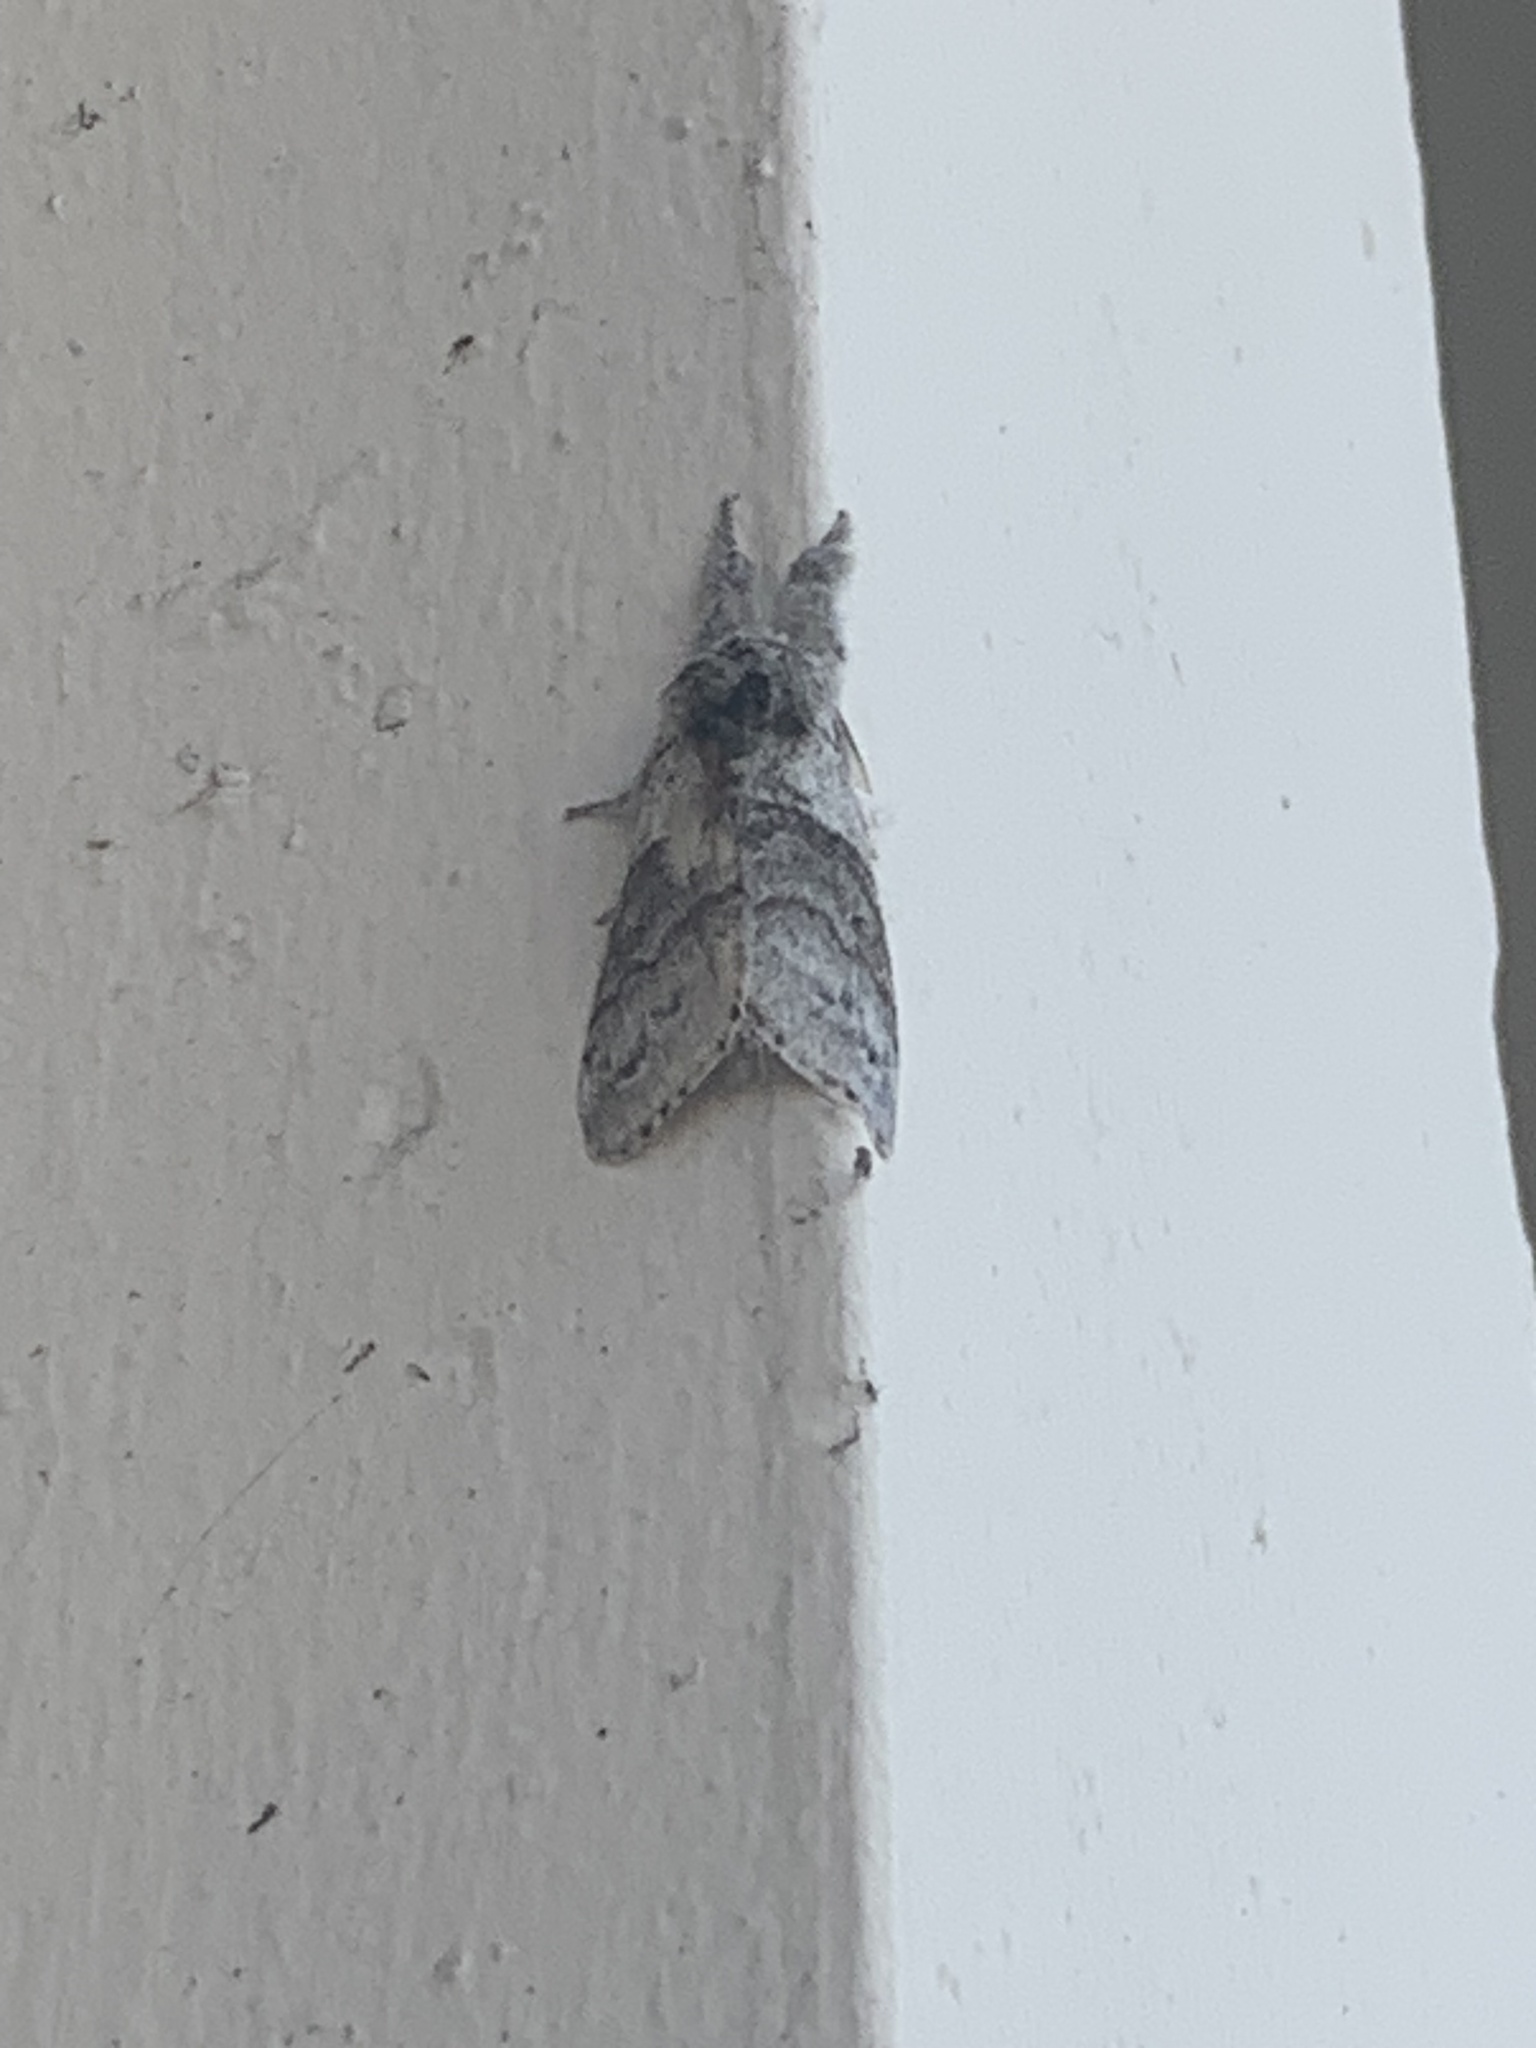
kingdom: Animalia
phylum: Arthropoda
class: Insecta
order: Lepidoptera
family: Erebidae
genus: Calliteara
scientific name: Calliteara pudibunda
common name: Pale tussock
